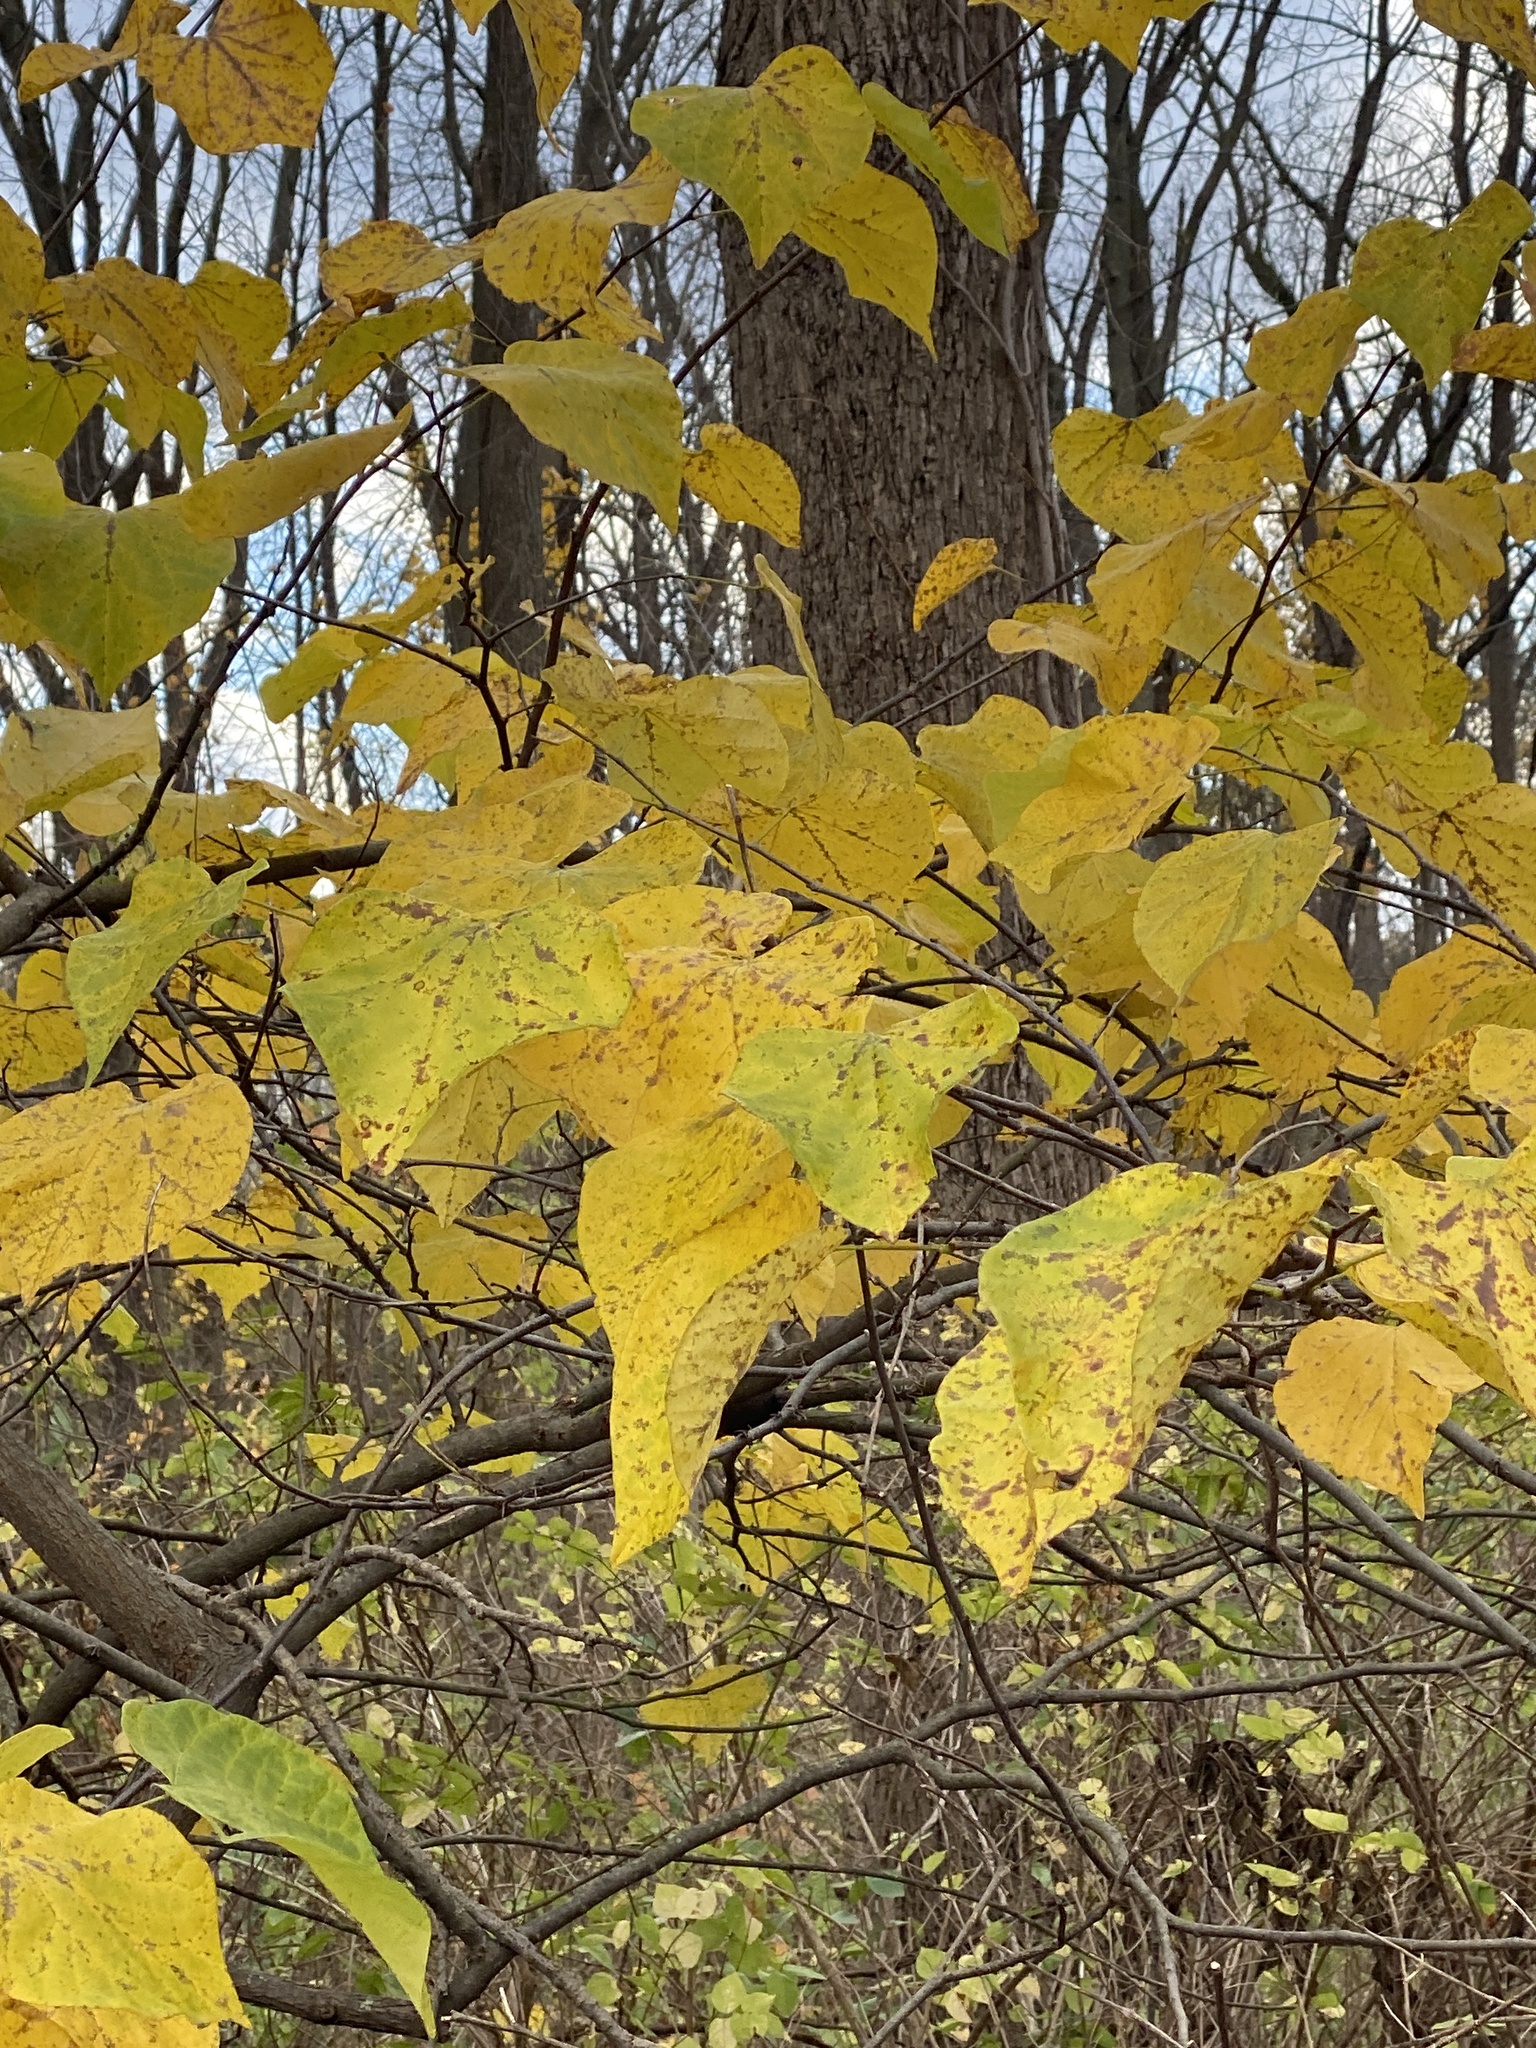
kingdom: Plantae
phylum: Tracheophyta
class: Magnoliopsida
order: Fabales
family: Fabaceae
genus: Cercis
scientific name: Cercis canadensis
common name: Eastern redbud
